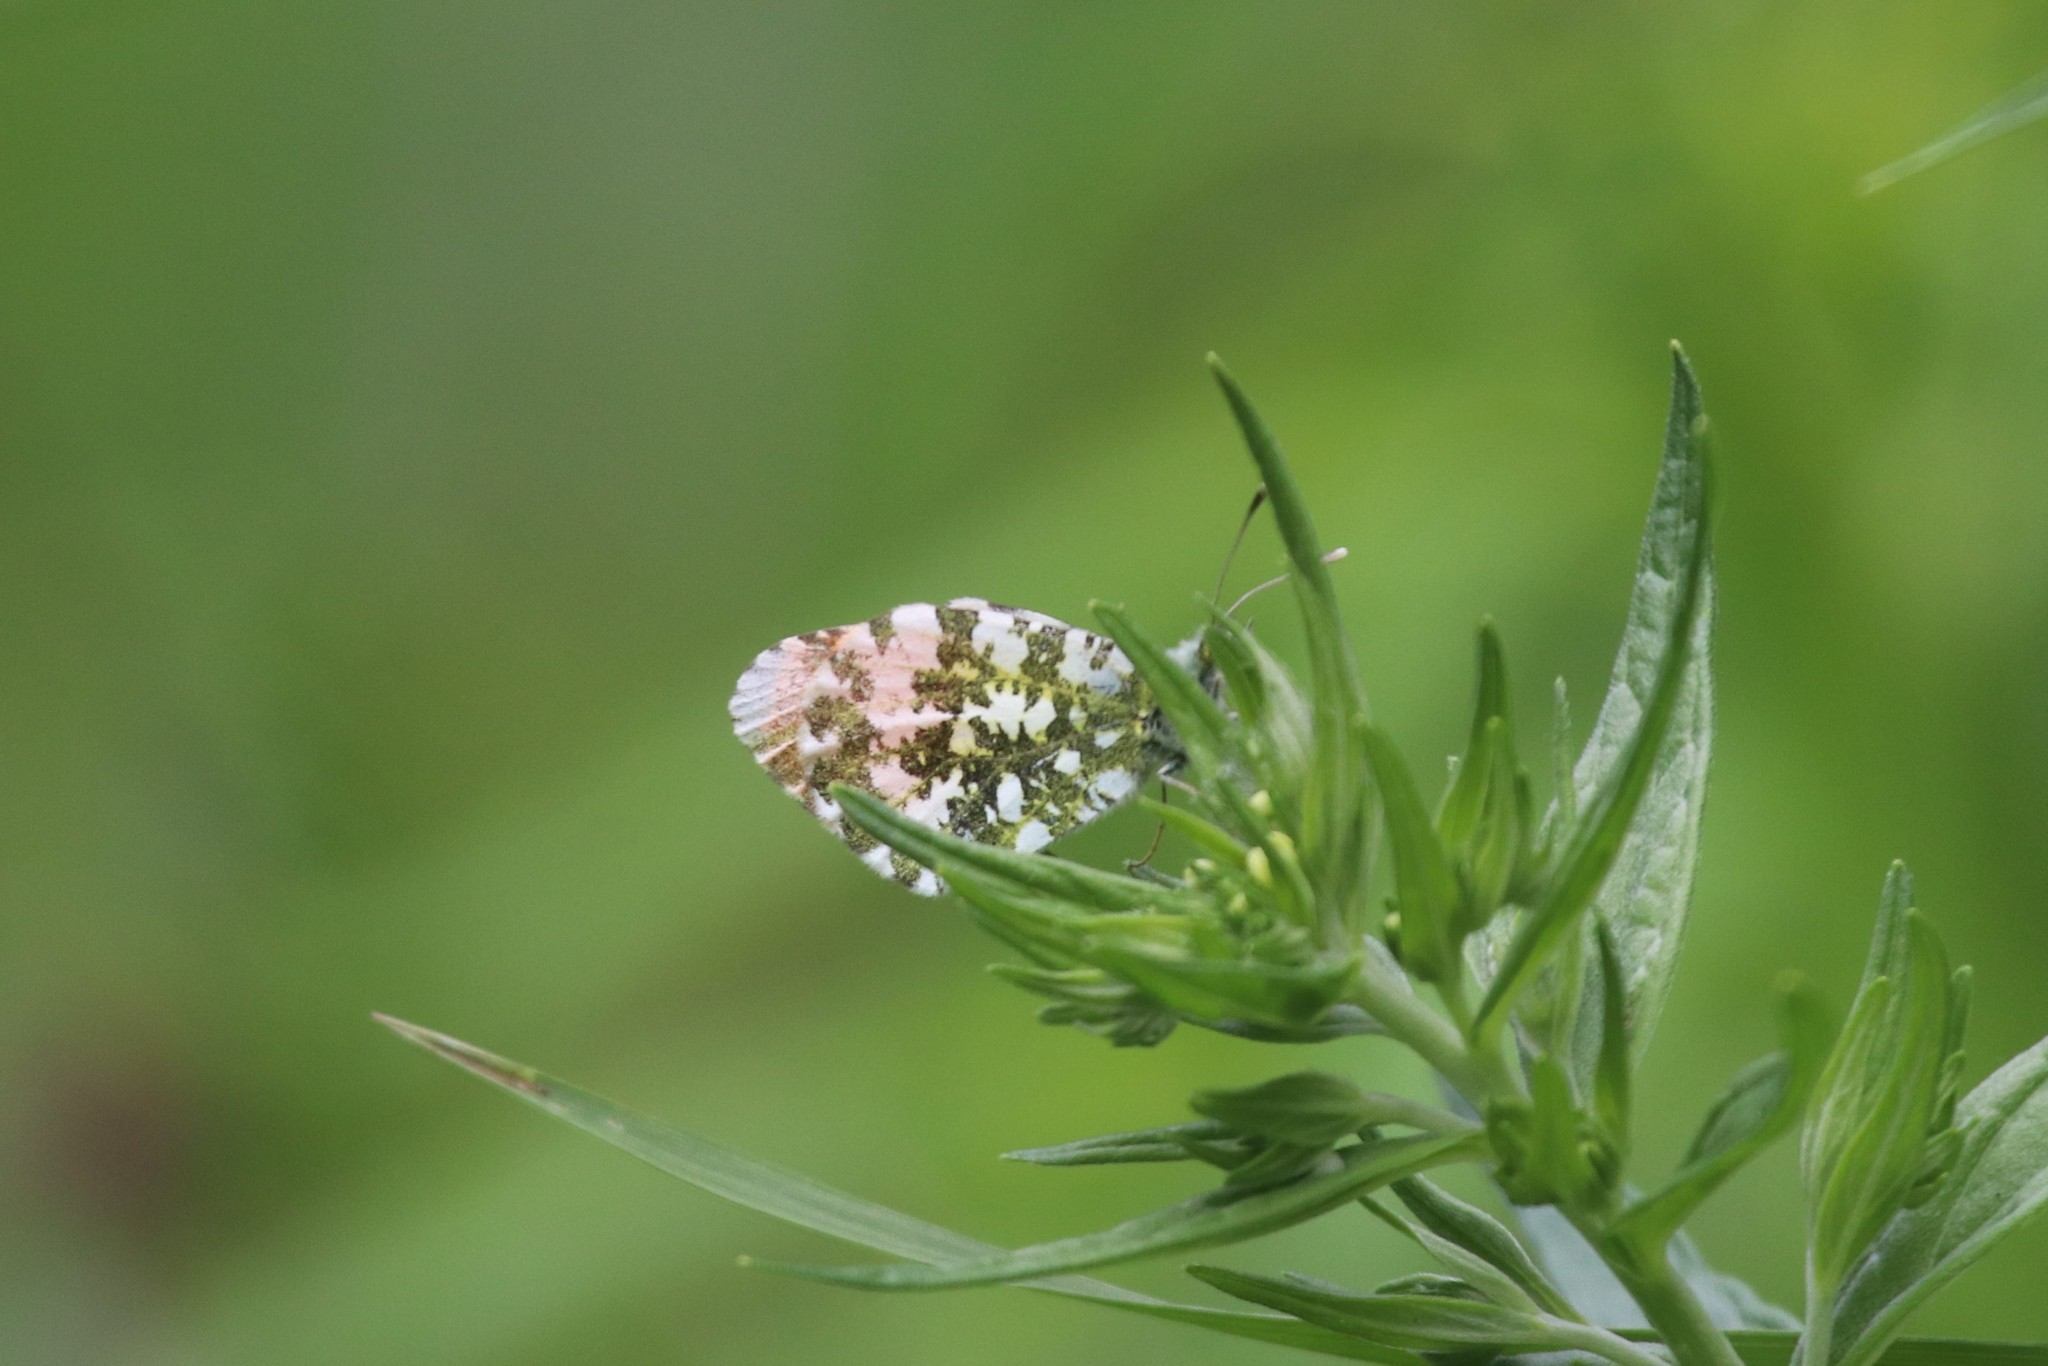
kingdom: Animalia
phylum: Arthropoda
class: Insecta
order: Lepidoptera
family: Pieridae
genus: Anthocharis
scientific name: Anthocharis cardamines
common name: Orange-tip
